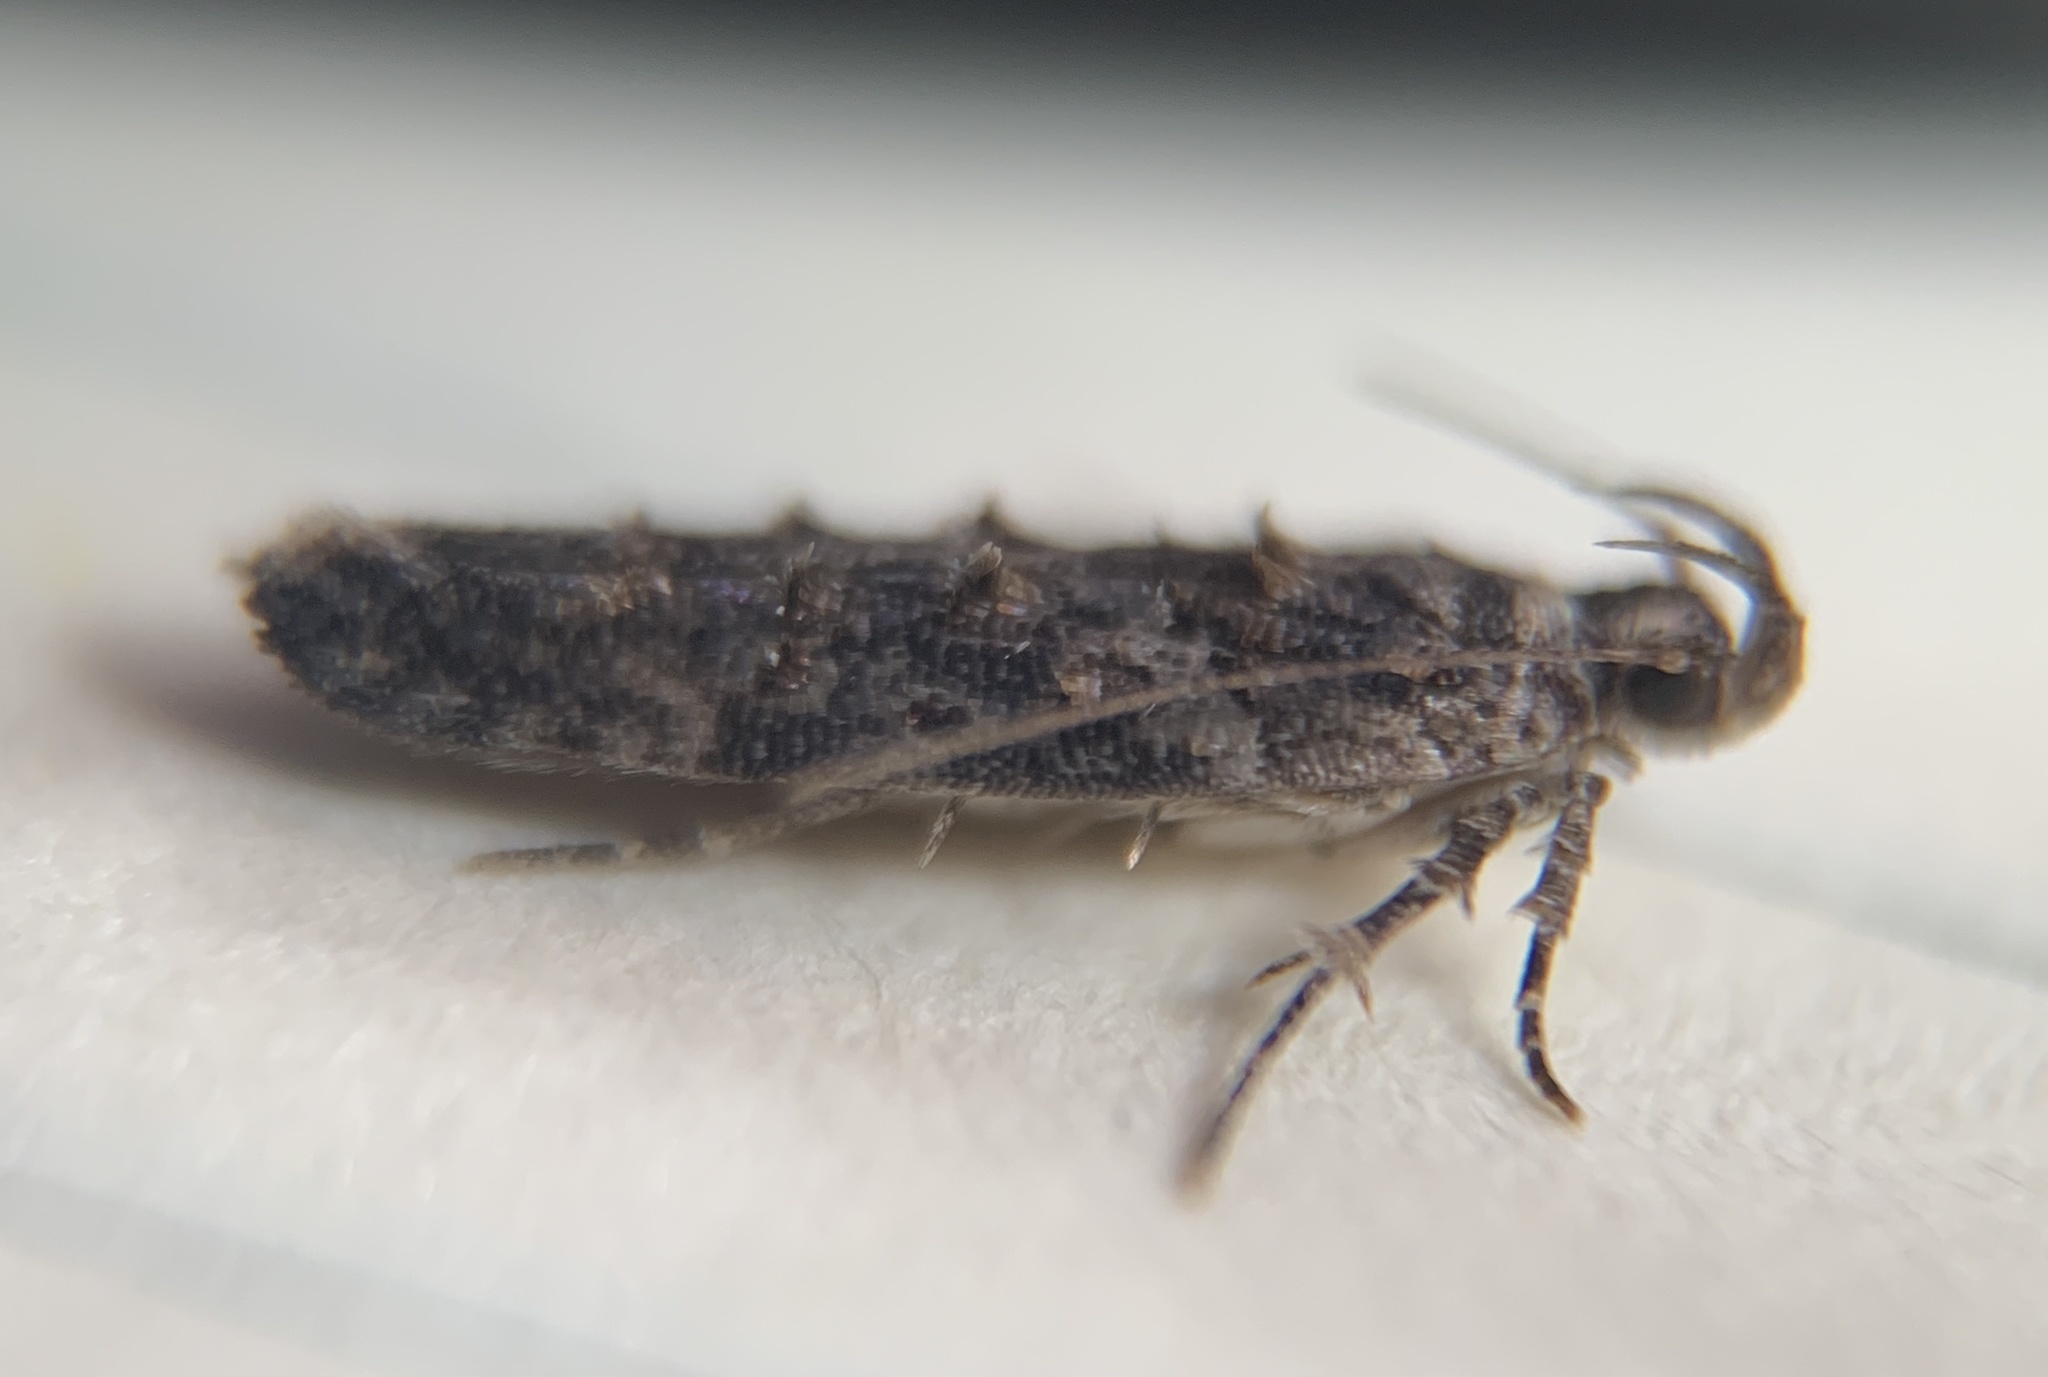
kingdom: Animalia
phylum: Arthropoda
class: Insecta
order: Lepidoptera
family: Gelechiidae
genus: Telphusa
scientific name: Telphusa perspicua
